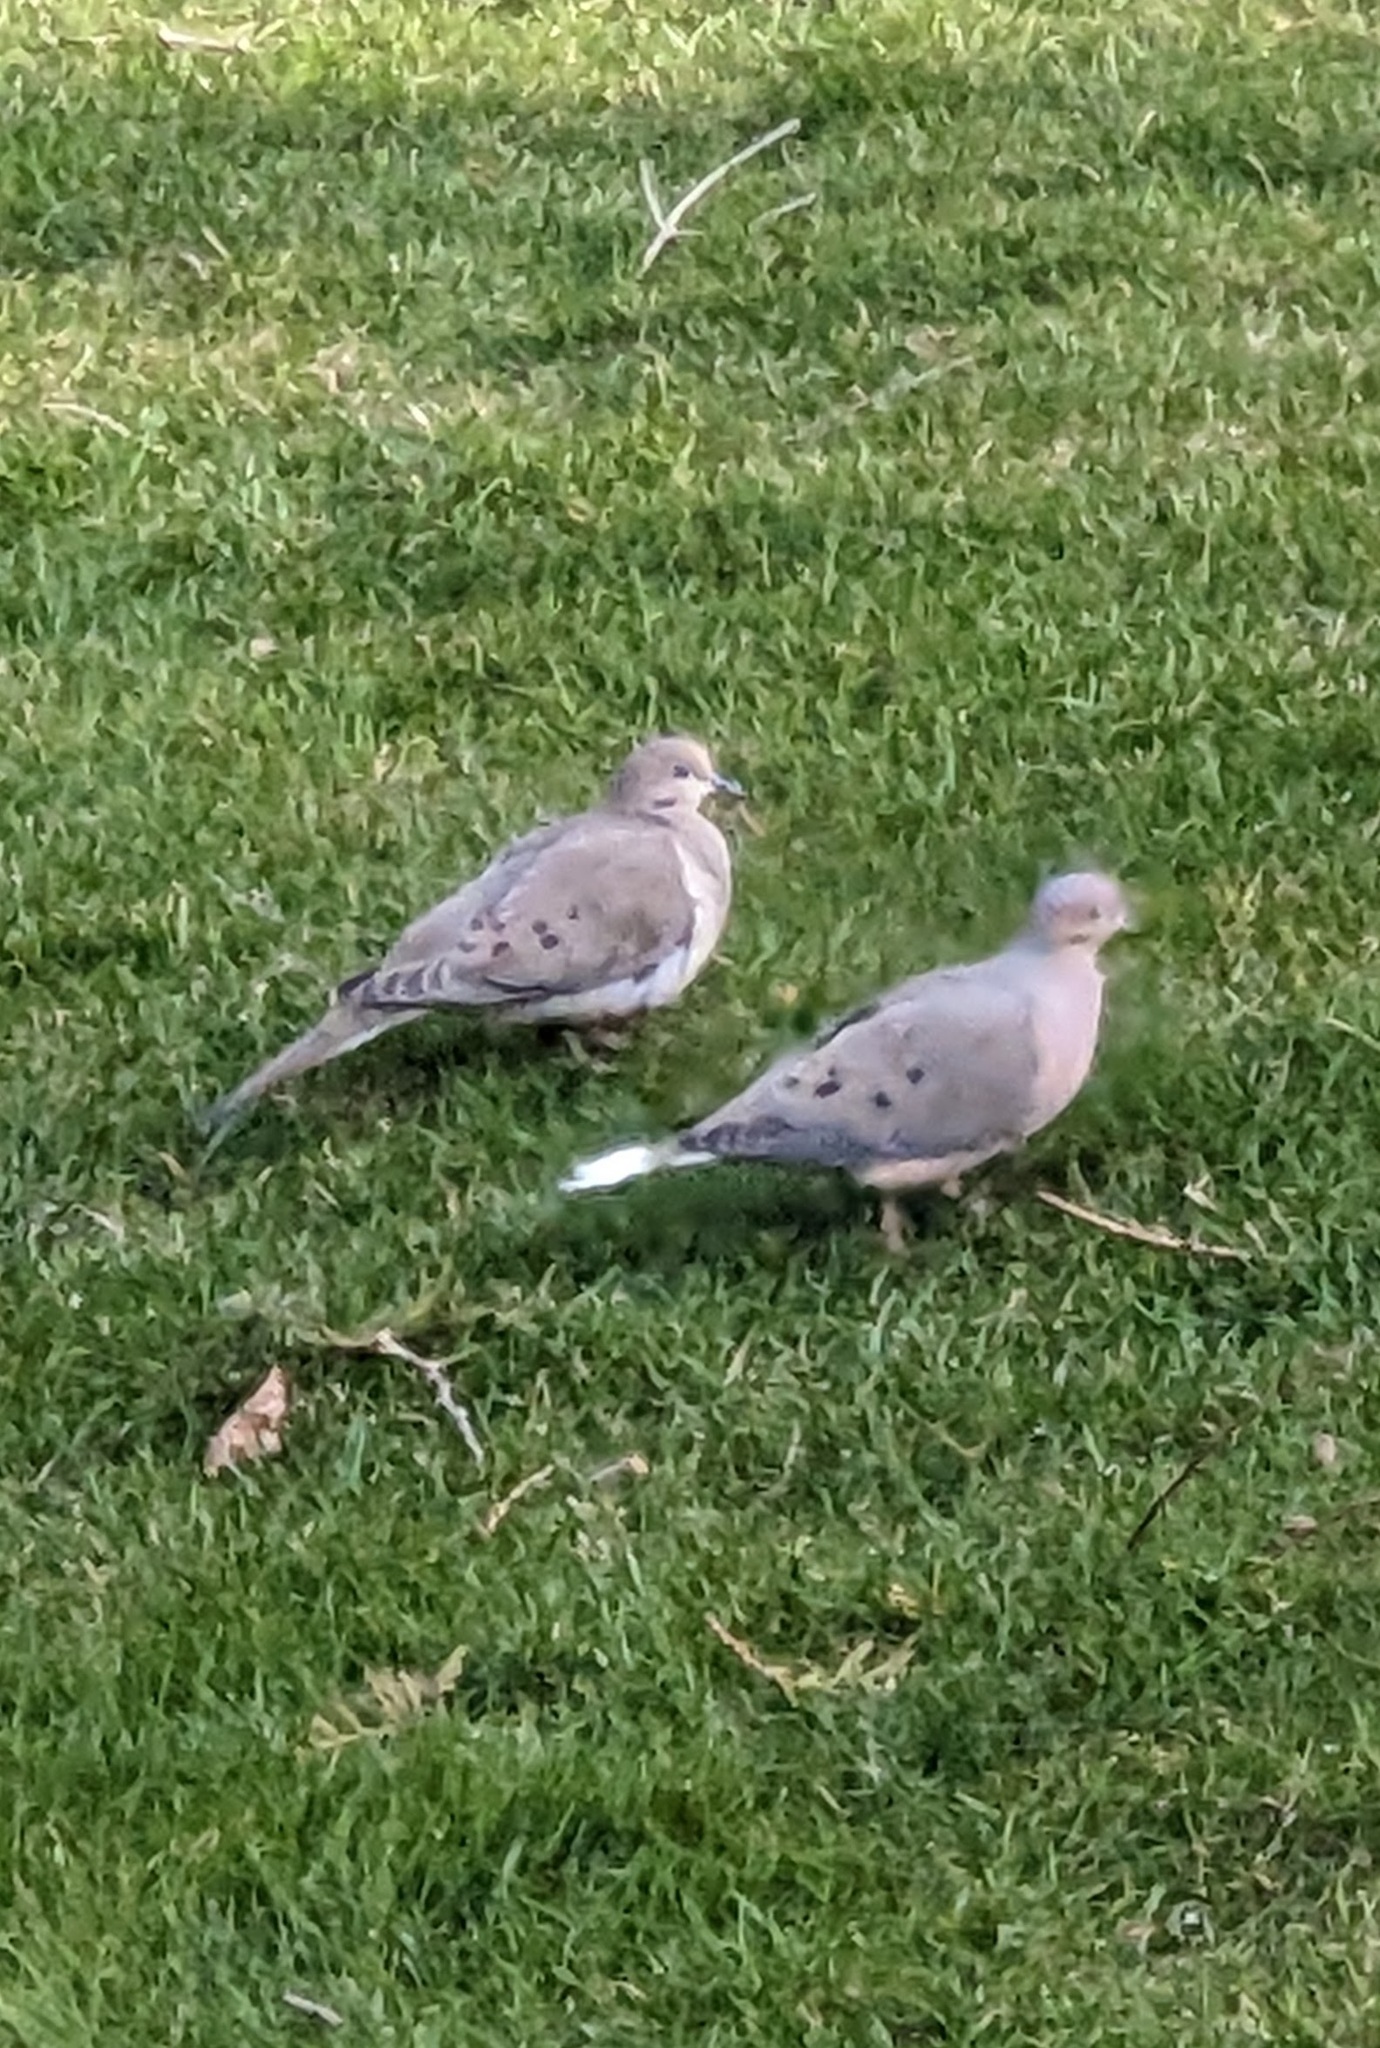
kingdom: Animalia
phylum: Chordata
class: Aves
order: Columbiformes
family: Columbidae
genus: Zenaida
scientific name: Zenaida macroura
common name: Mourning dove
